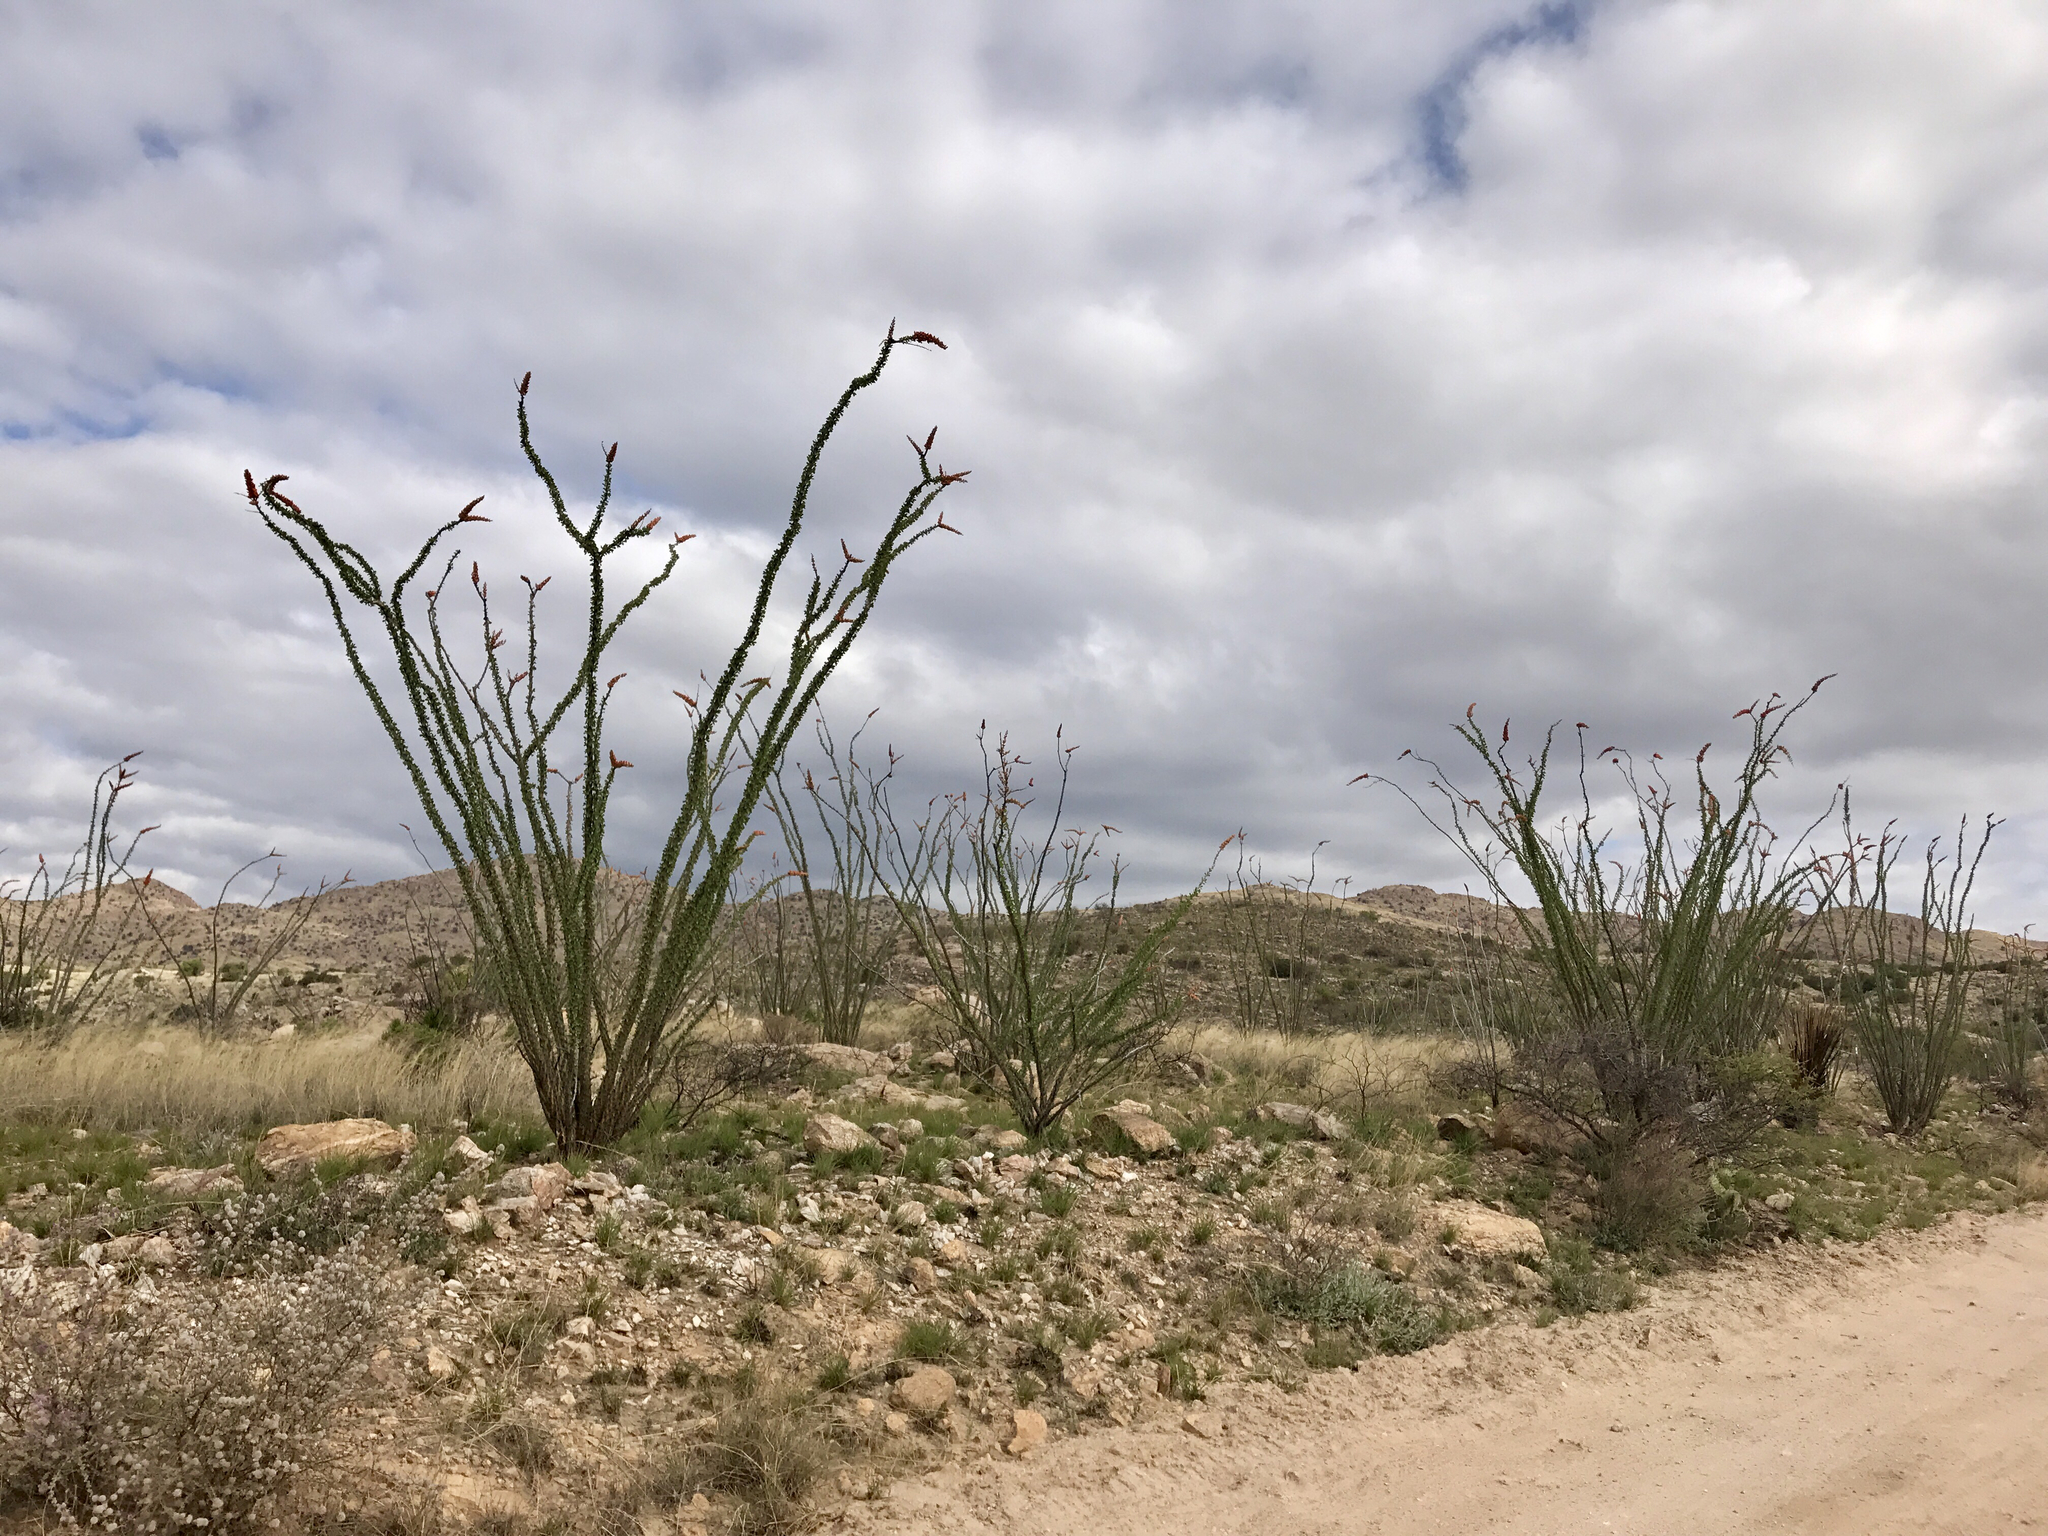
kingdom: Plantae
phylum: Tracheophyta
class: Magnoliopsida
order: Ericales
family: Fouquieriaceae
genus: Fouquieria
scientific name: Fouquieria splendens
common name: Vine-cactus
